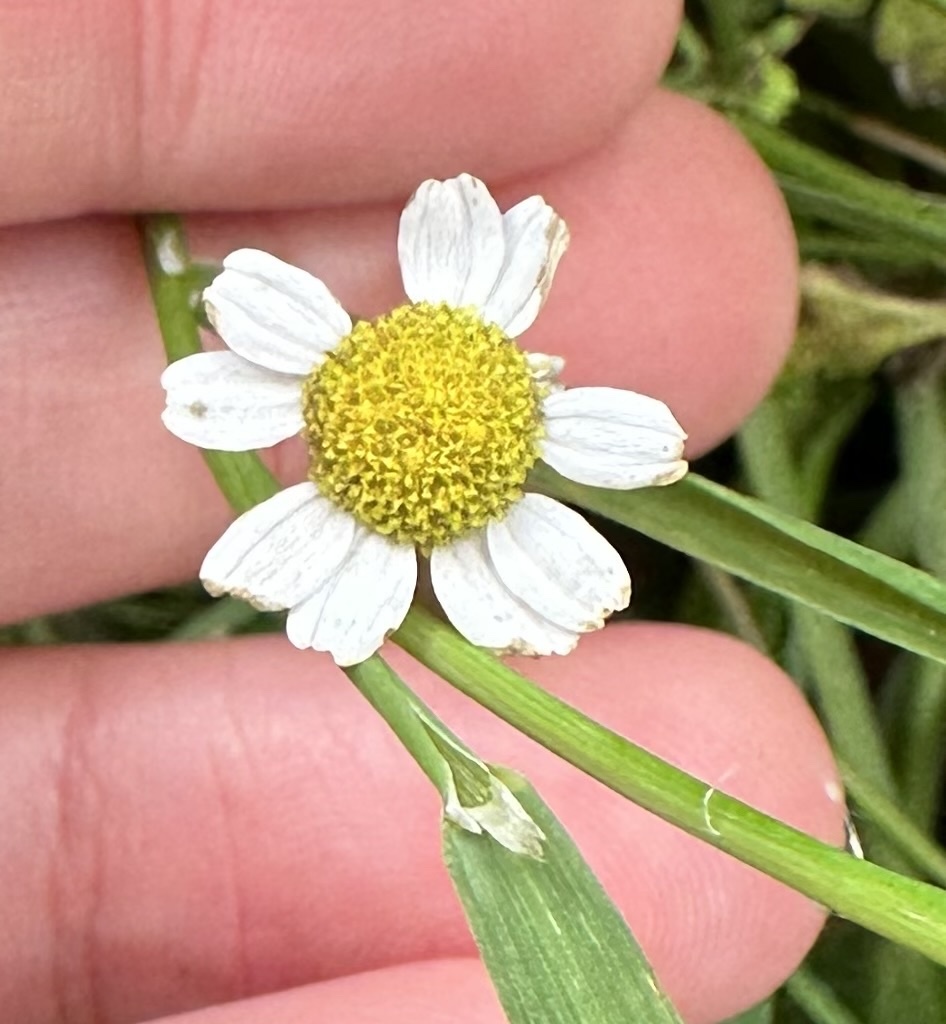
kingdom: Plantae
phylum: Tracheophyta
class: Magnoliopsida
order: Asterales
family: Asteraceae
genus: Tanacetum
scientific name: Tanacetum parthenium
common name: Feverfew
